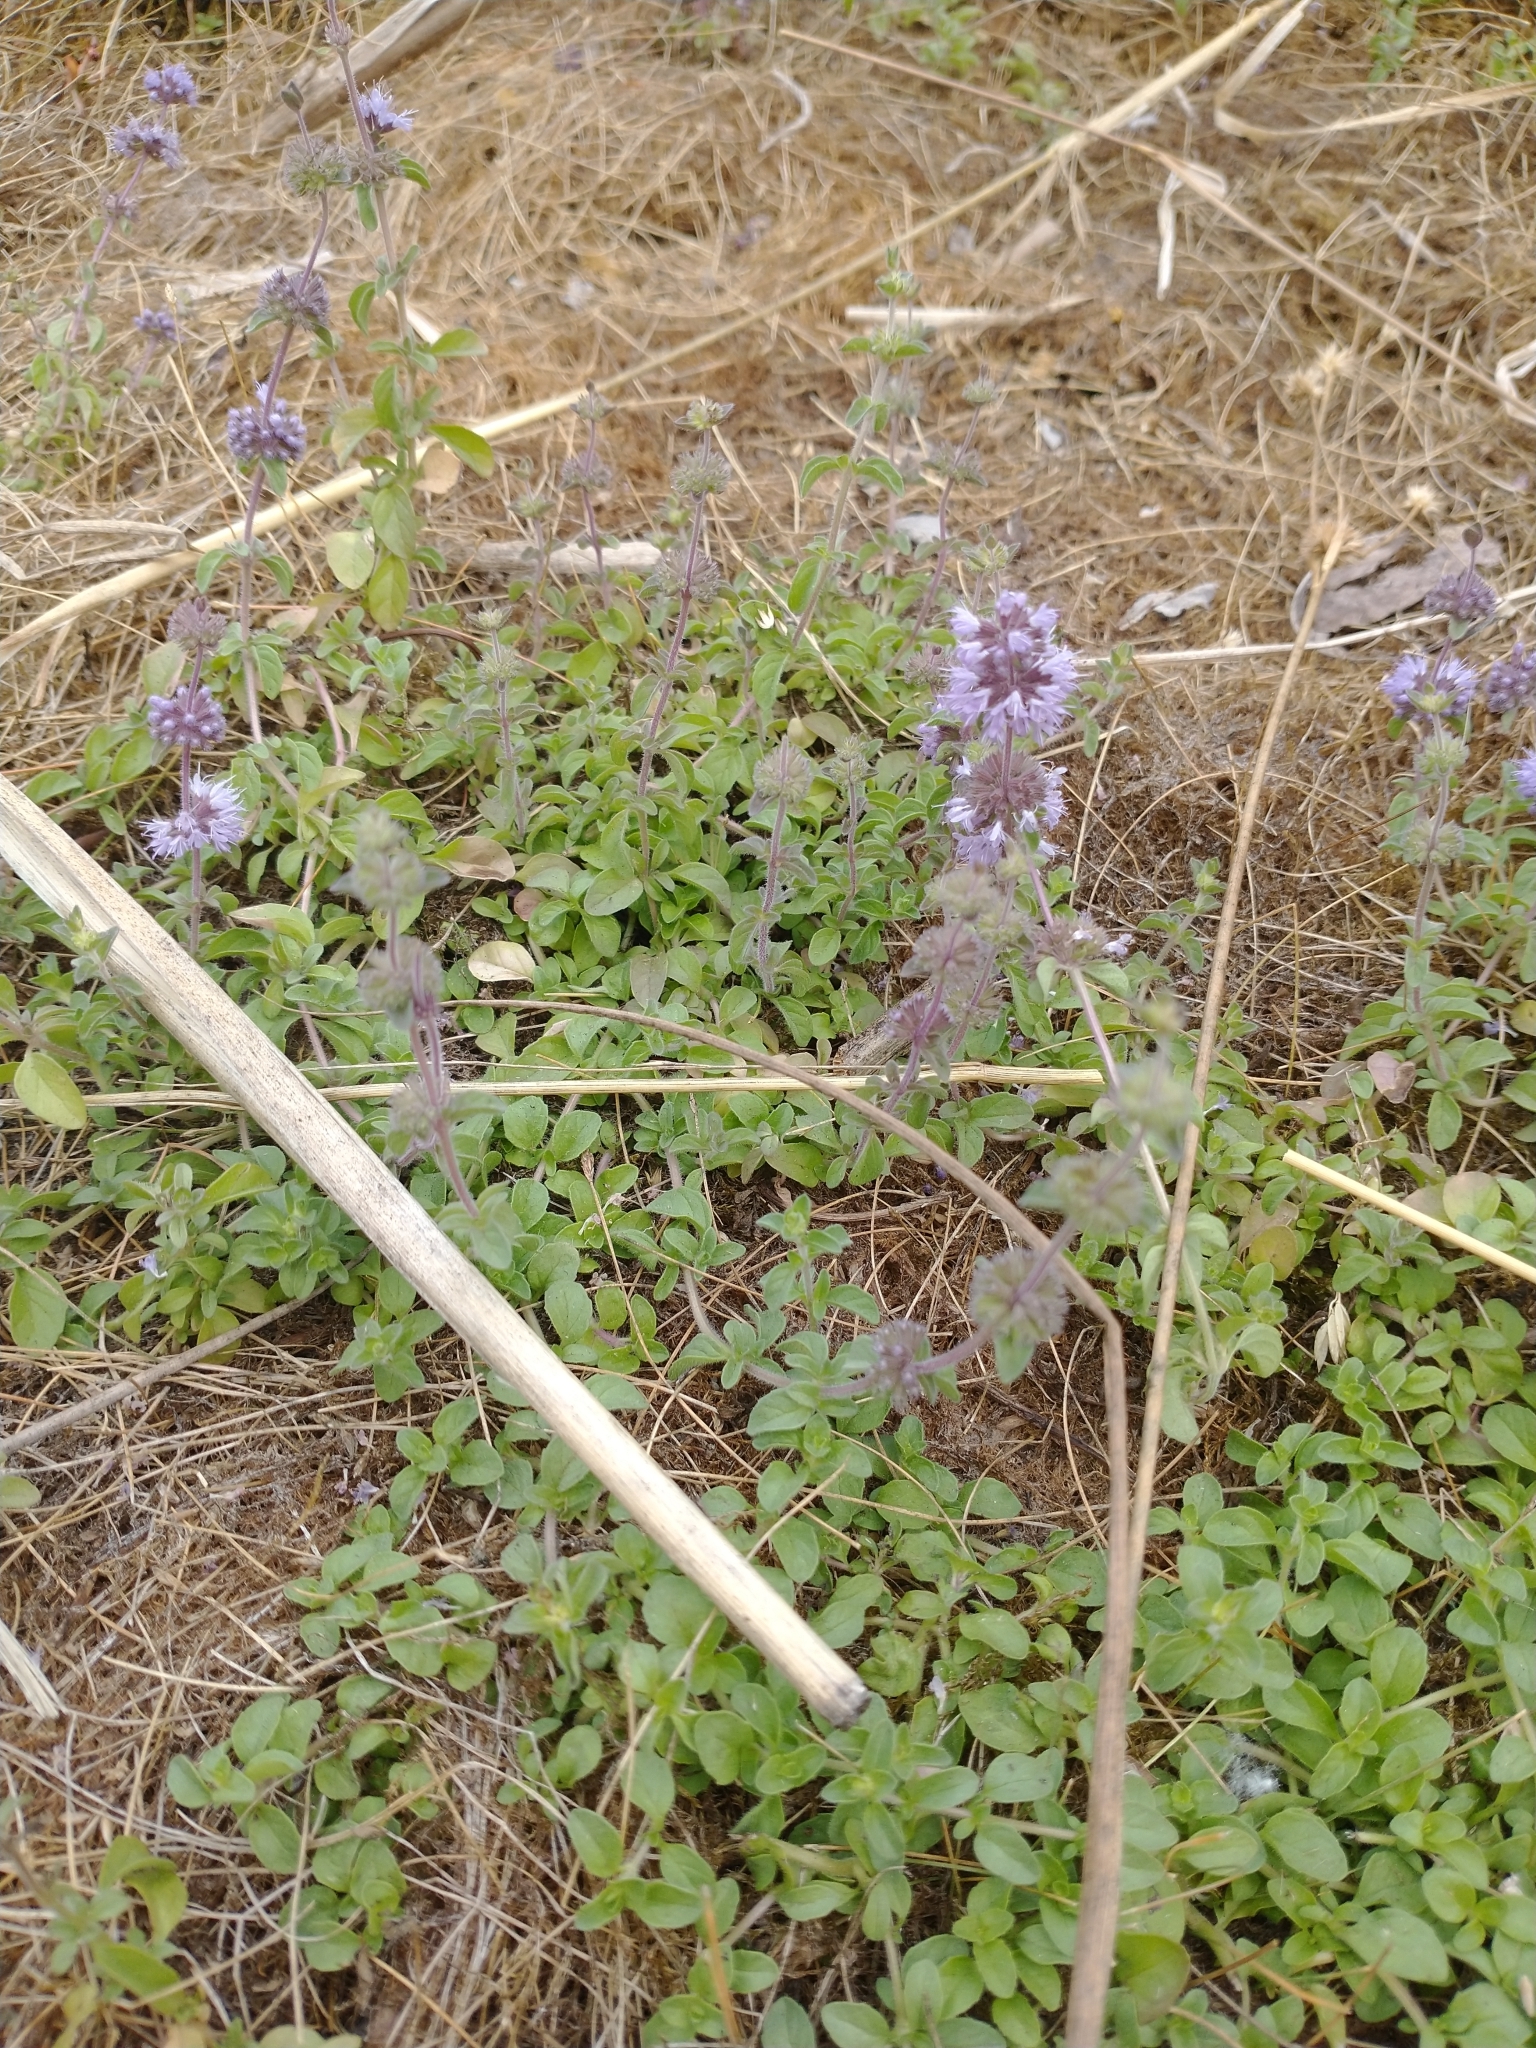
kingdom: Plantae
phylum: Tracheophyta
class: Magnoliopsida
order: Lamiales
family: Lamiaceae
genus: Mentha
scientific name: Mentha pulegium
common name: Pennyroyal
